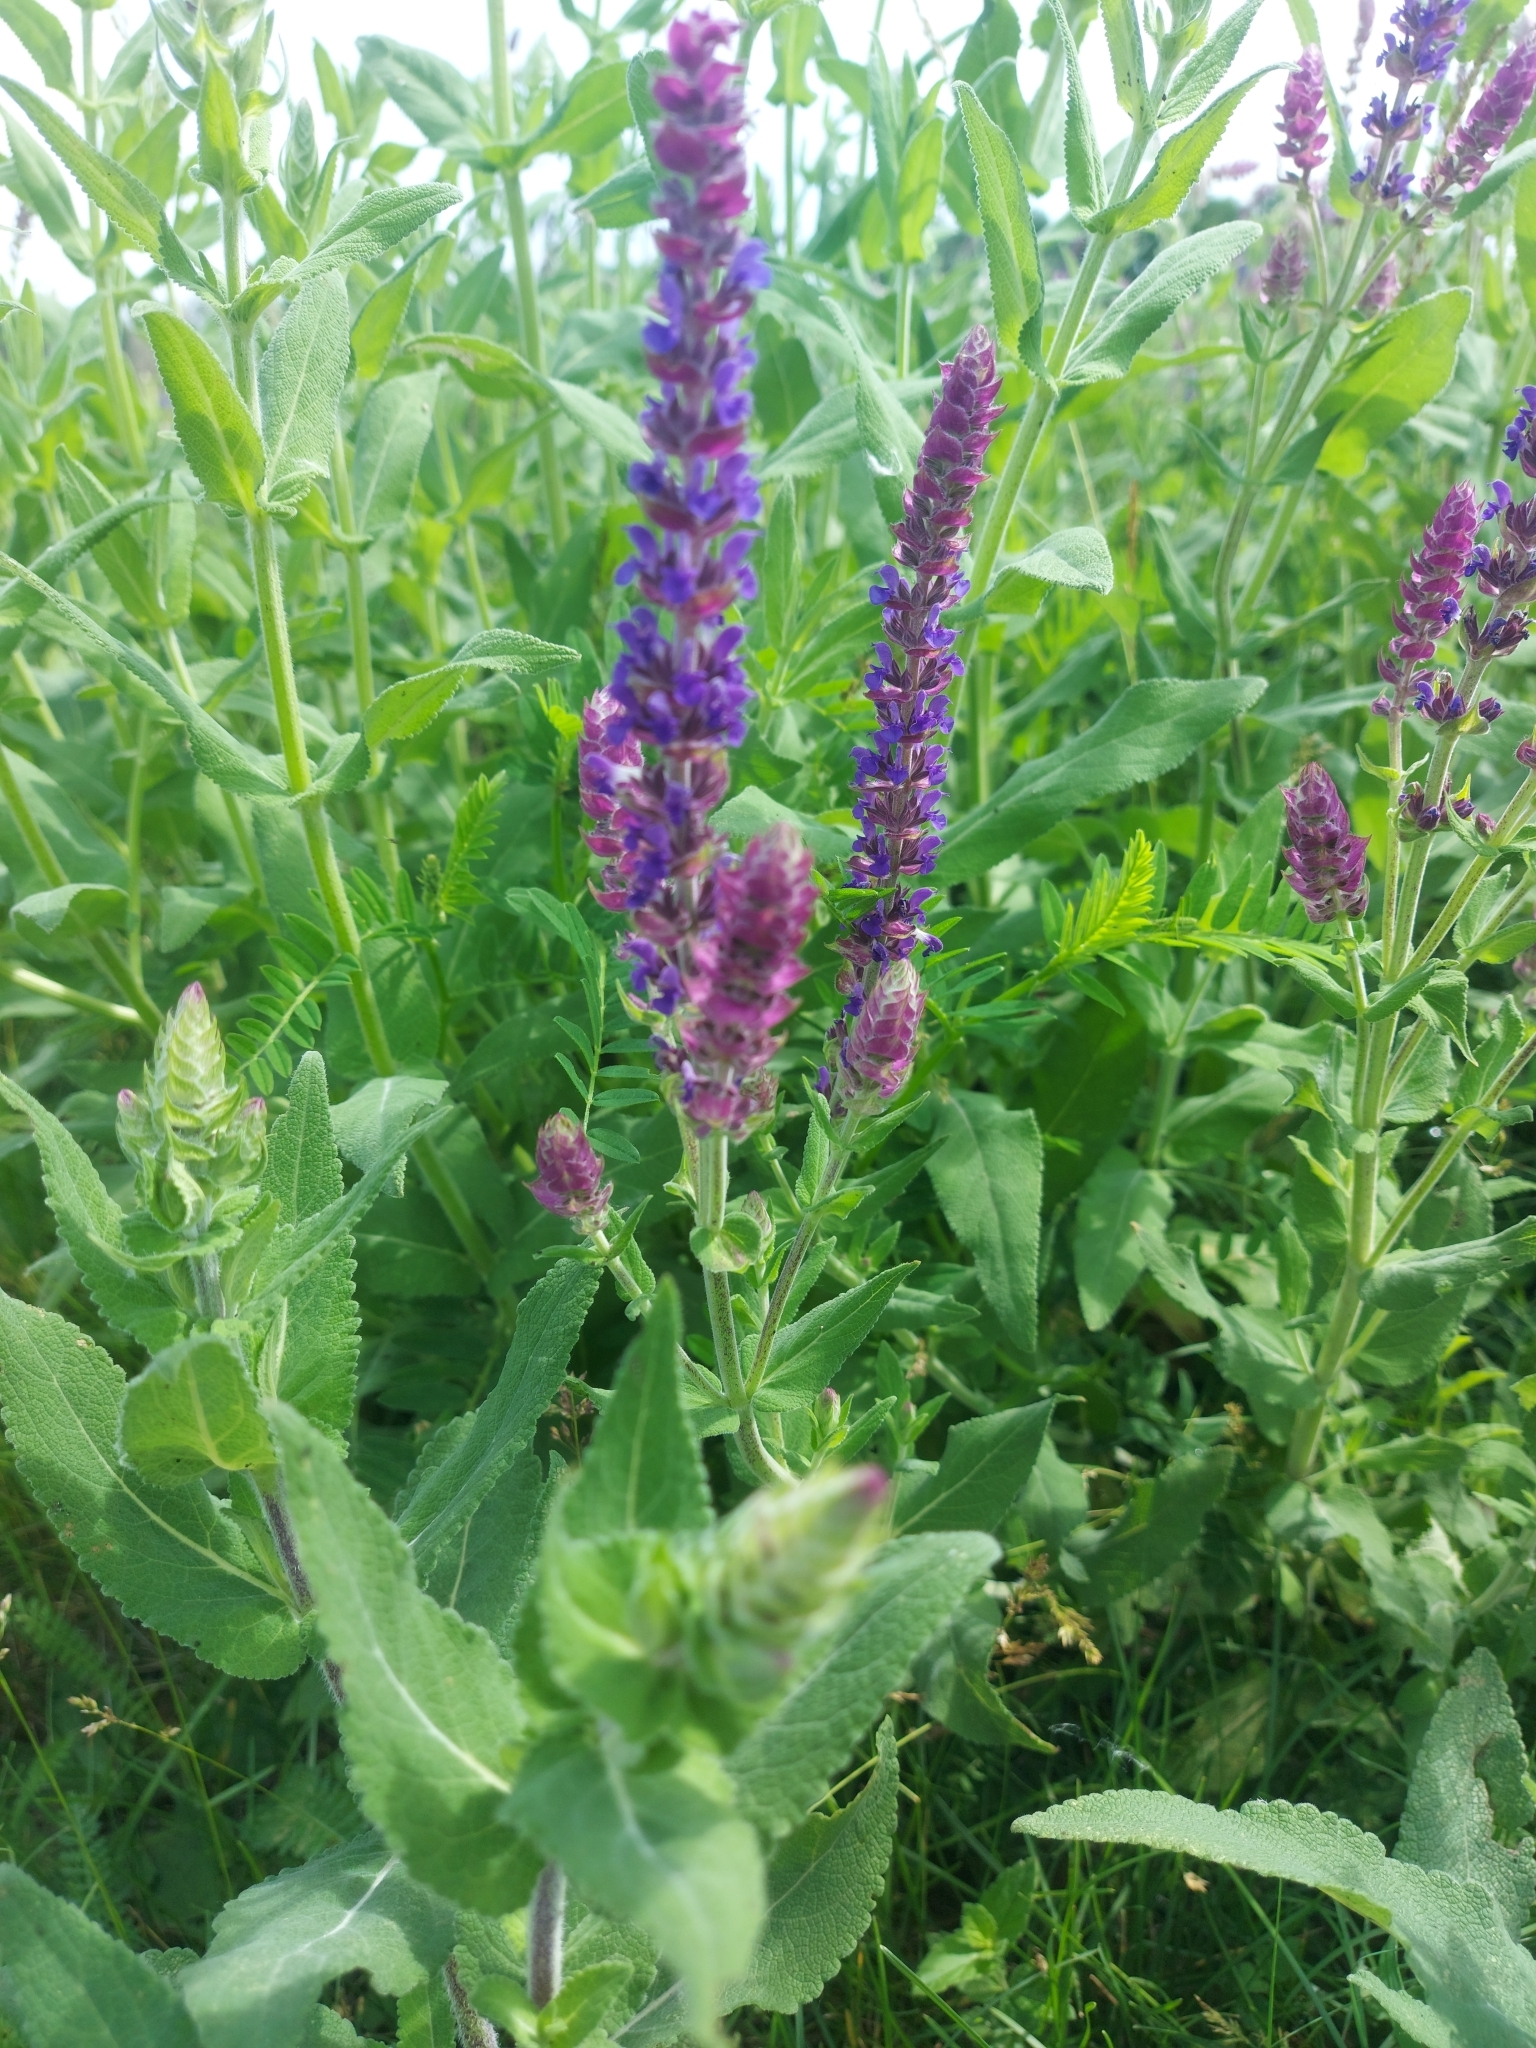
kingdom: Plantae
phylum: Tracheophyta
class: Magnoliopsida
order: Lamiales
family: Lamiaceae
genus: Salvia
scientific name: Salvia nemorosa
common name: Balkan clary
